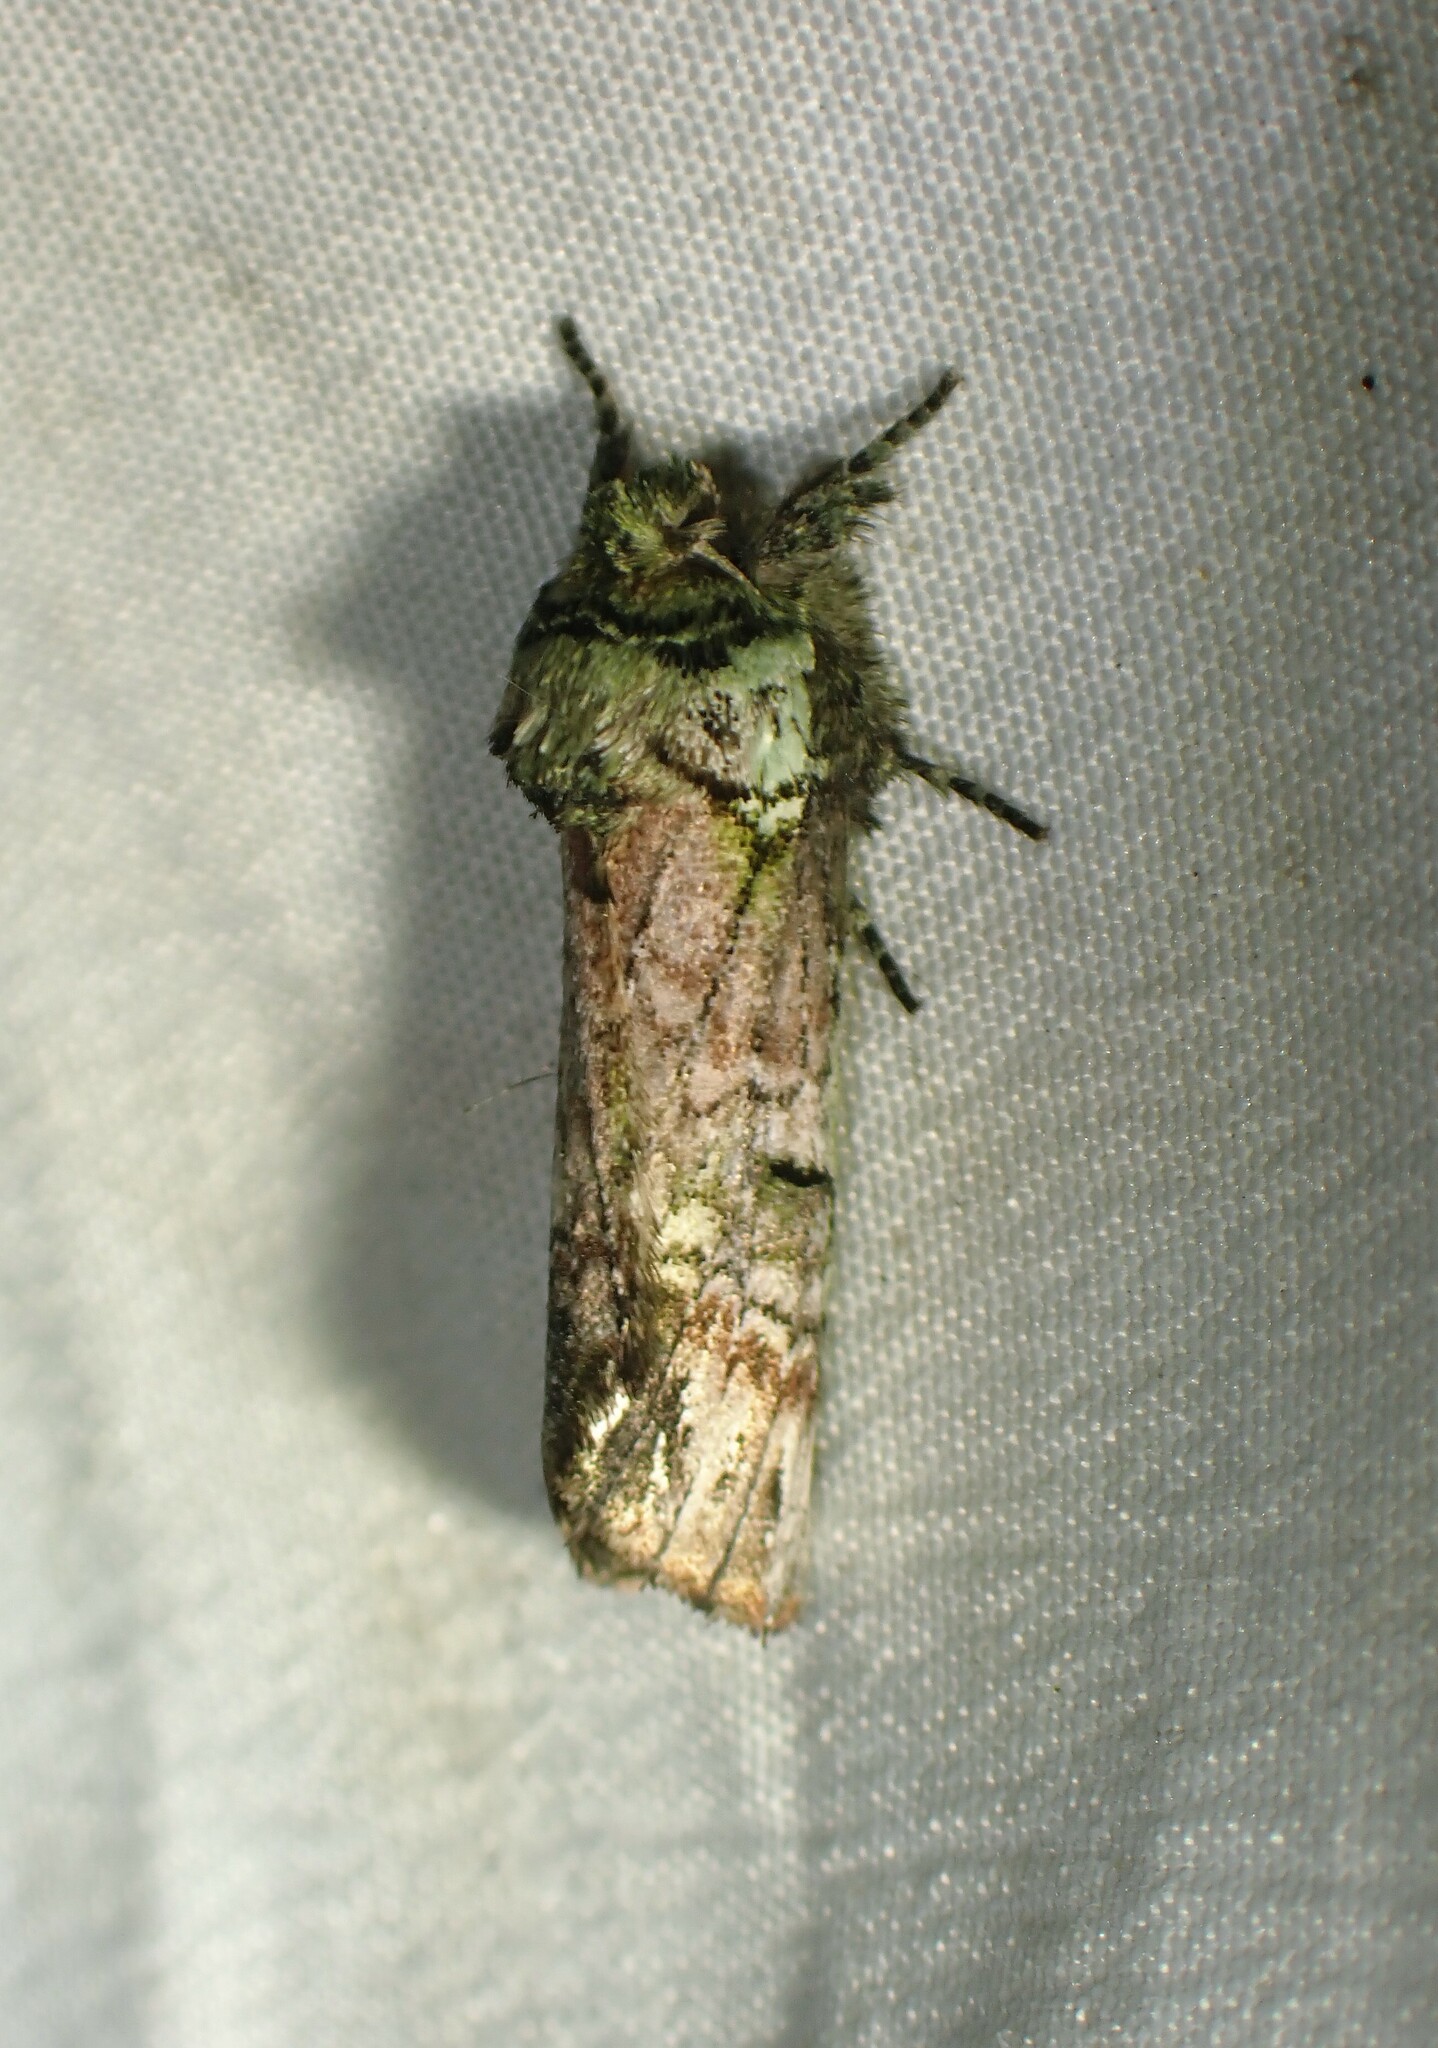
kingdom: Animalia
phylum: Arthropoda
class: Insecta
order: Lepidoptera
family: Notodontidae
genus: Schizura
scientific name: Schizura
